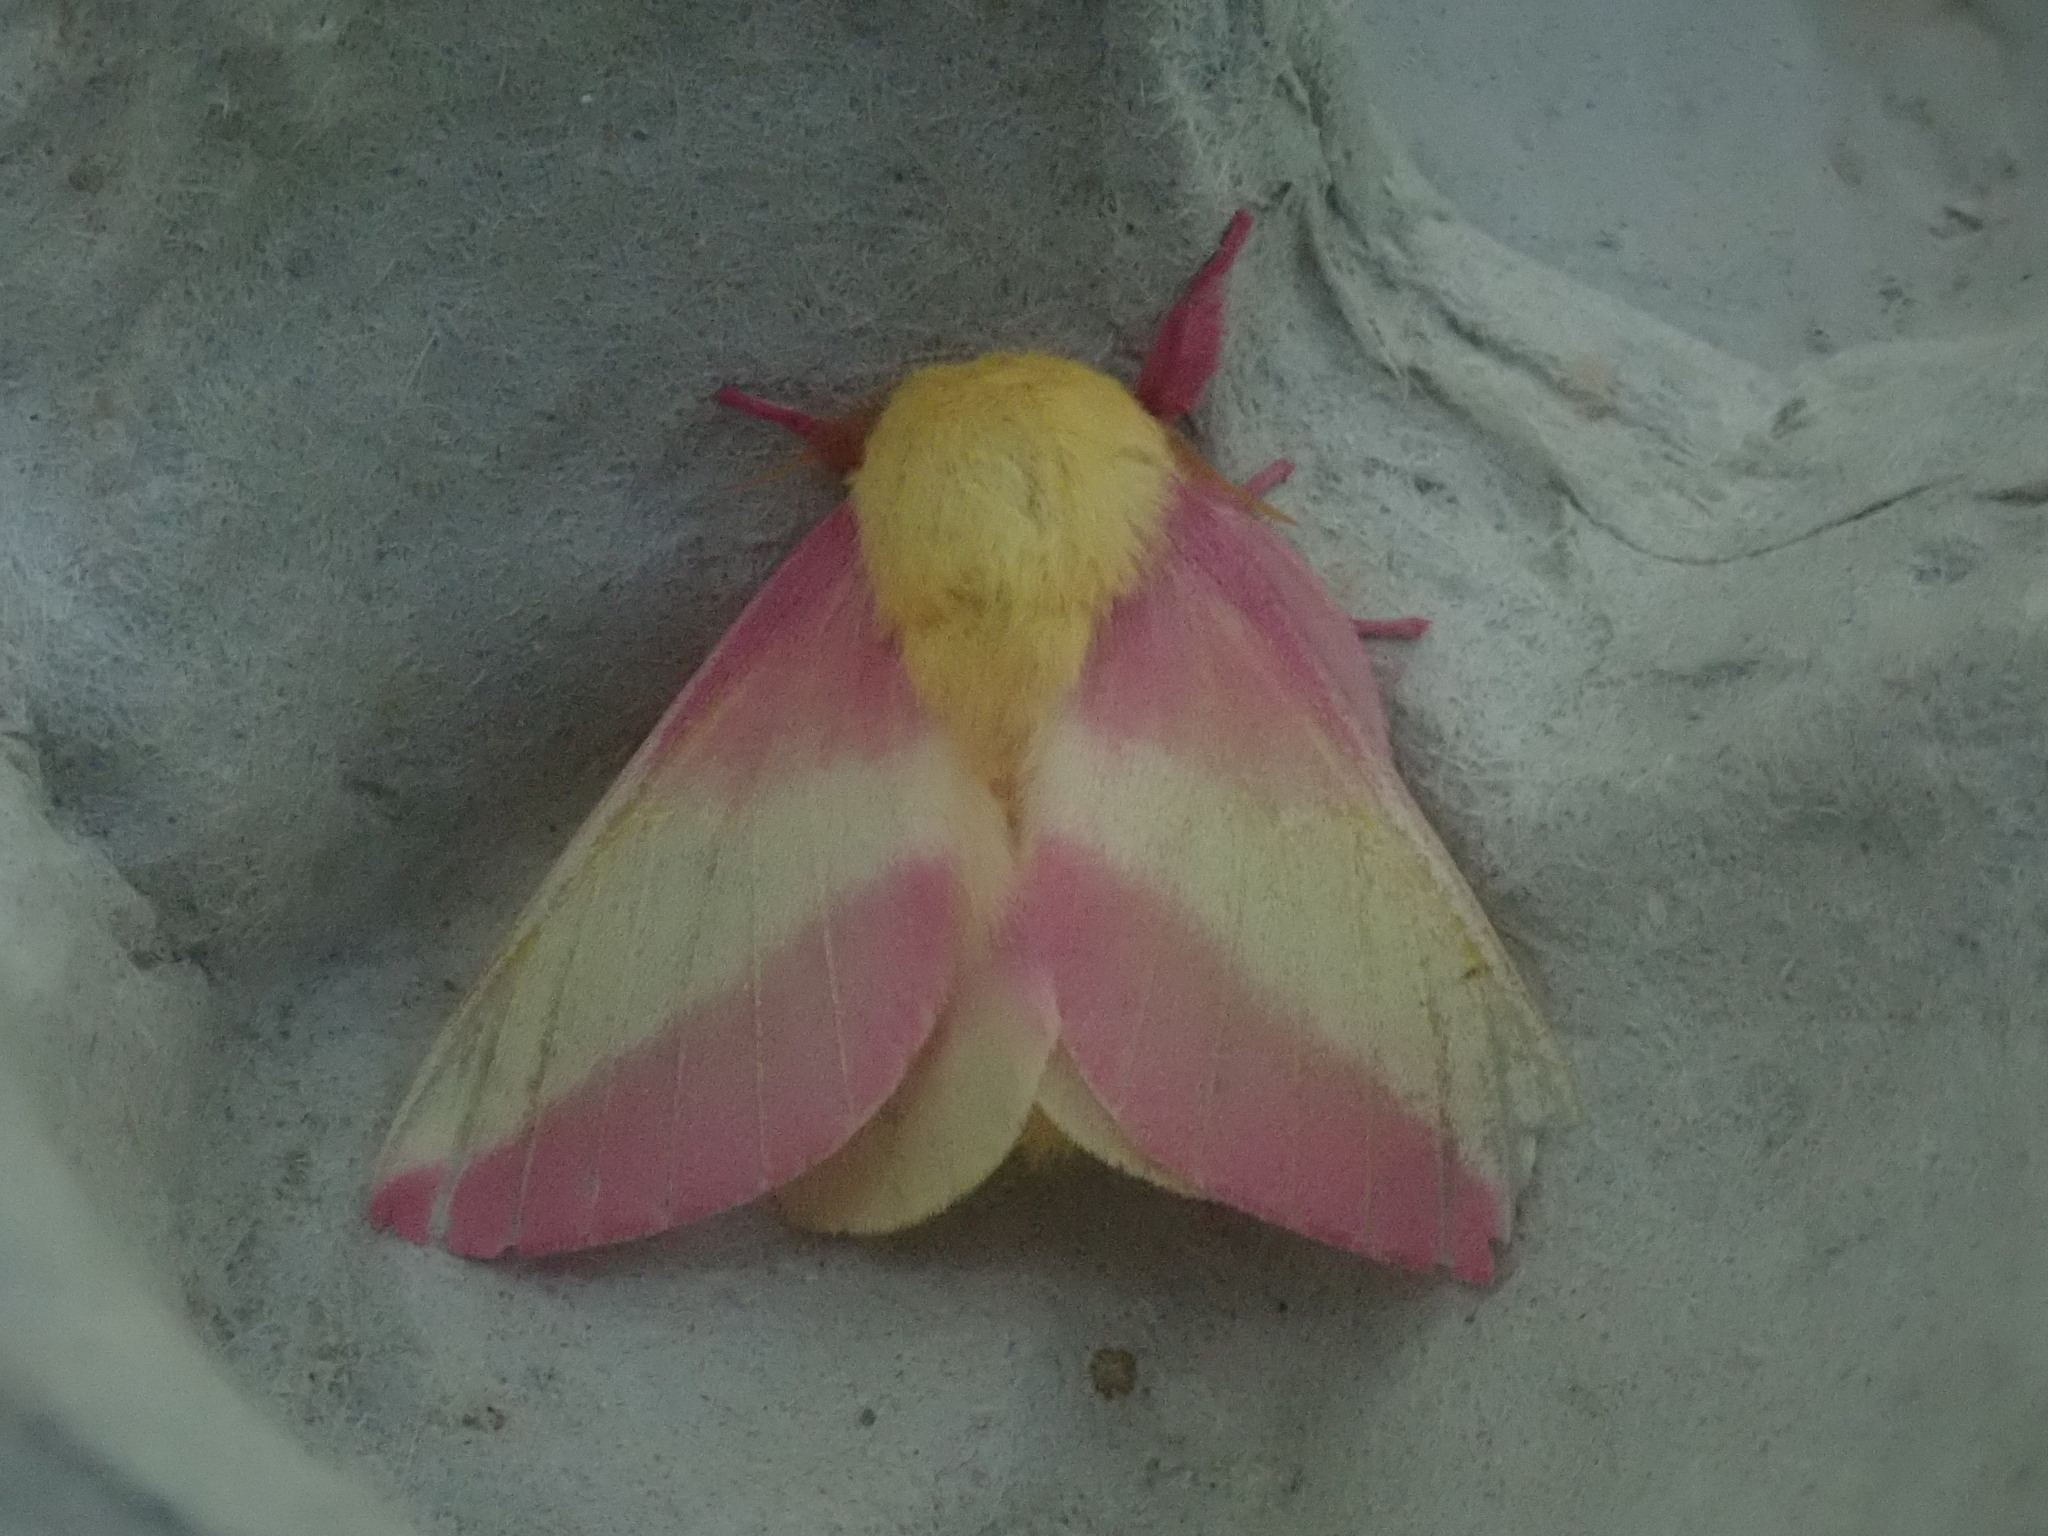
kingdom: Animalia
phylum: Arthropoda
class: Insecta
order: Lepidoptera
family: Saturniidae
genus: Dryocampa
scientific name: Dryocampa rubicunda
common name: Rosy maple moth
